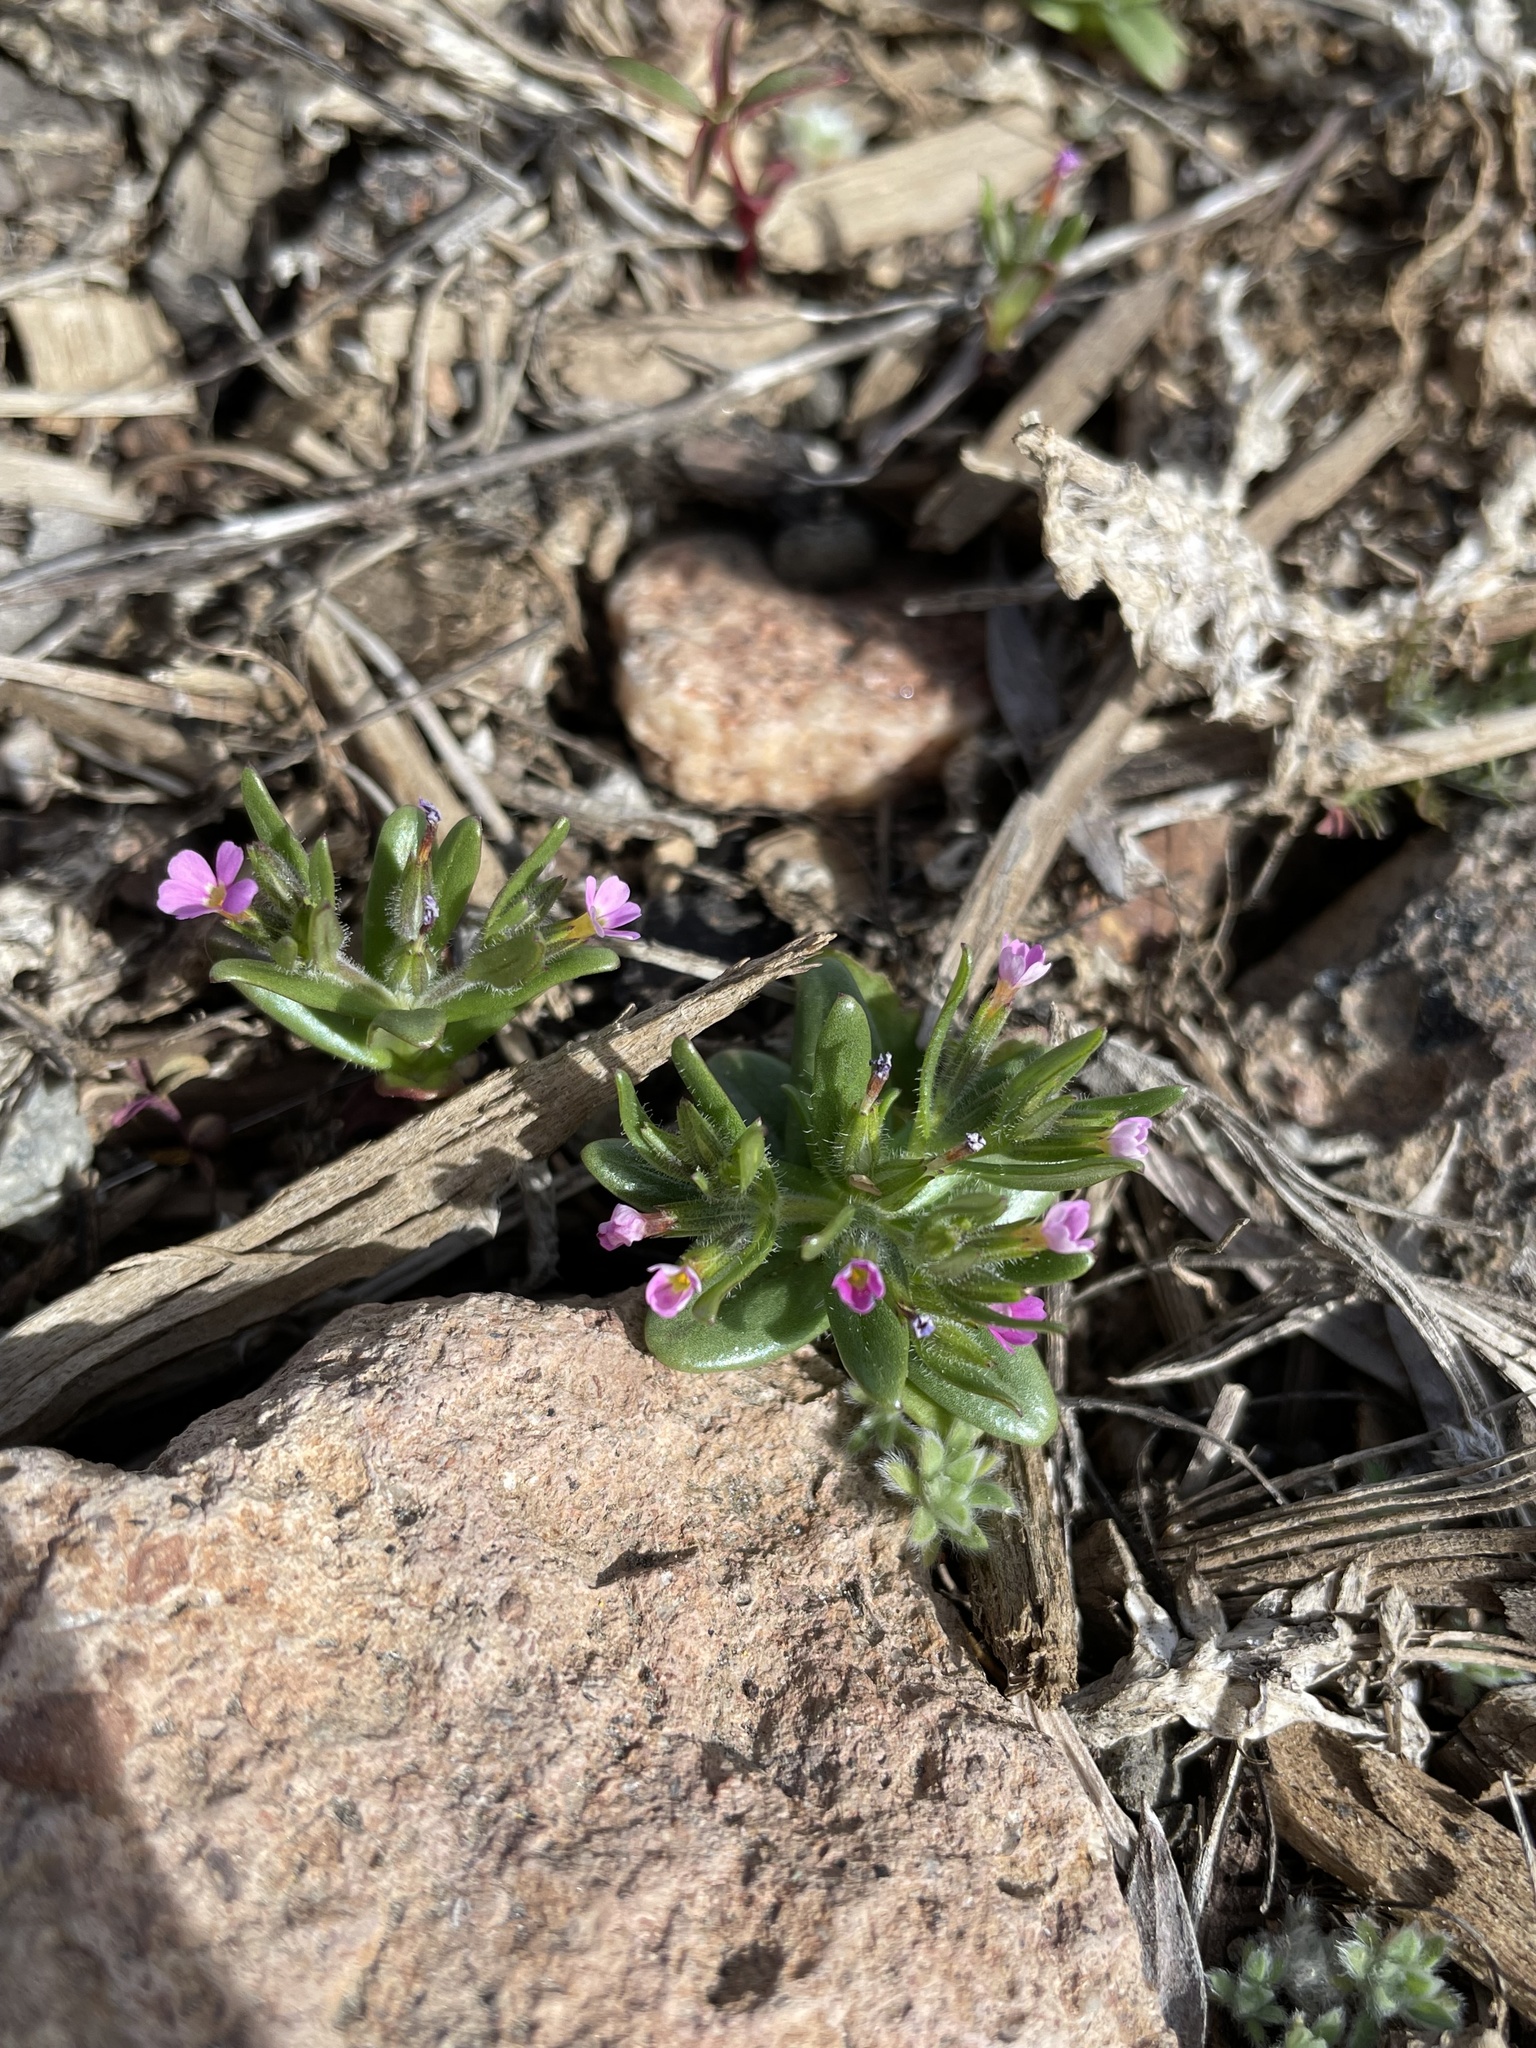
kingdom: Plantae
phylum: Tracheophyta
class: Magnoliopsida
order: Ericales
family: Polemoniaceae
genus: Phlox
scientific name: Phlox gracilis
